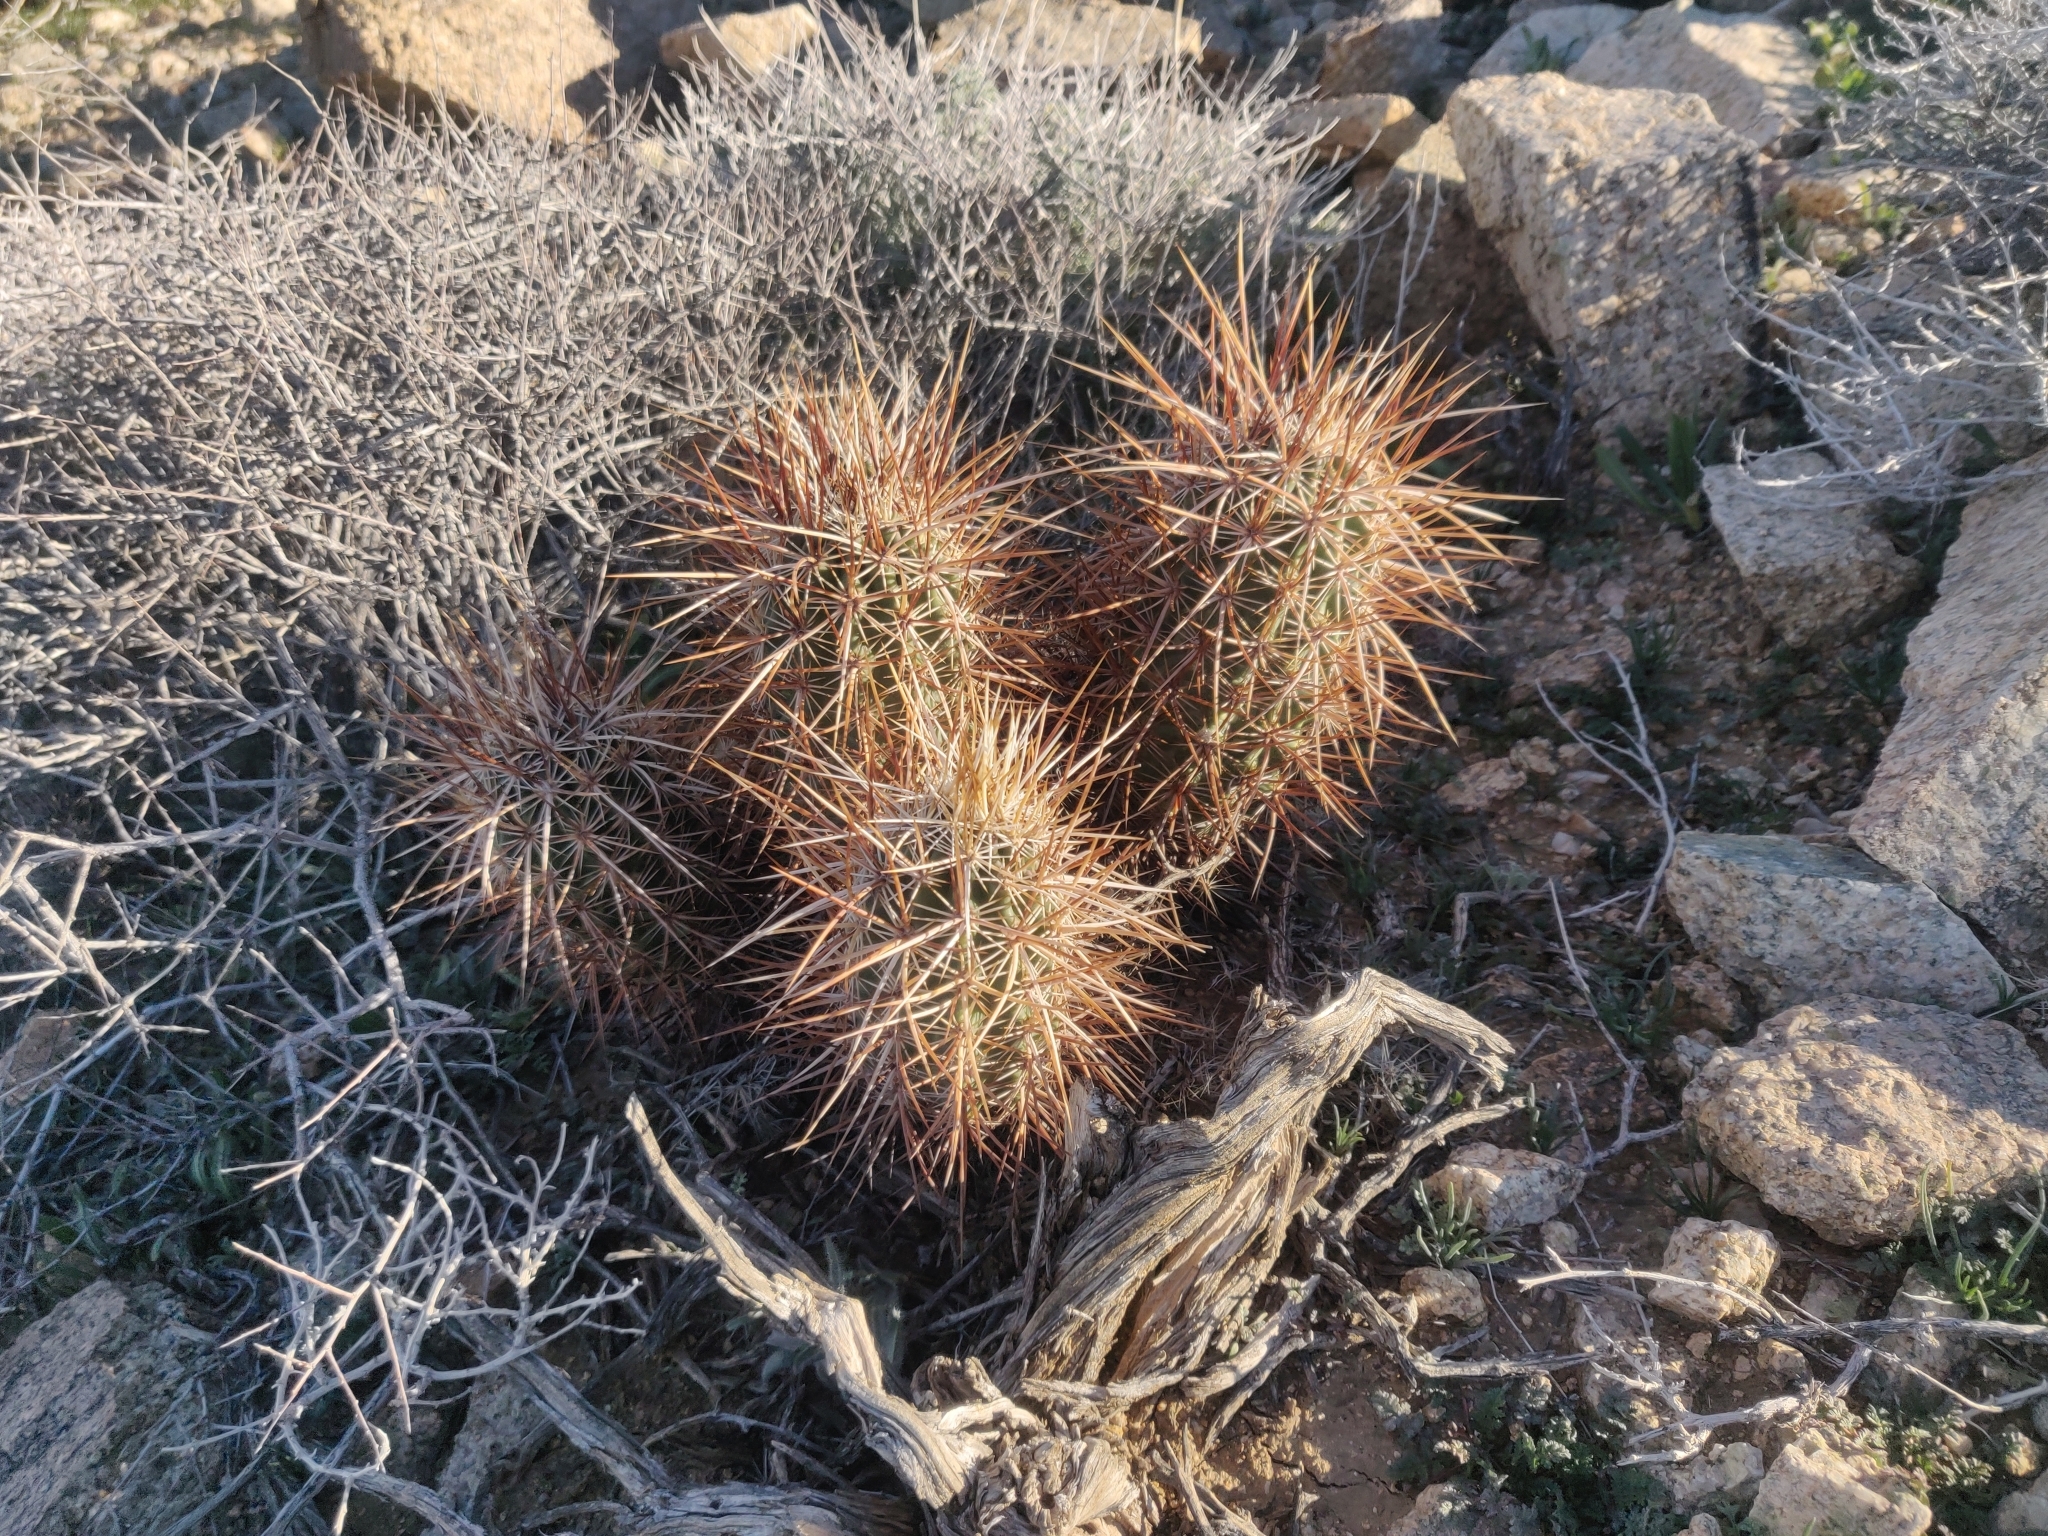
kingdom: Plantae
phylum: Tracheophyta
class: Magnoliopsida
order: Caryophyllales
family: Cactaceae
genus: Echinocereus
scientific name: Echinocereus engelmannii
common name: Engelmann's hedgehog cactus
